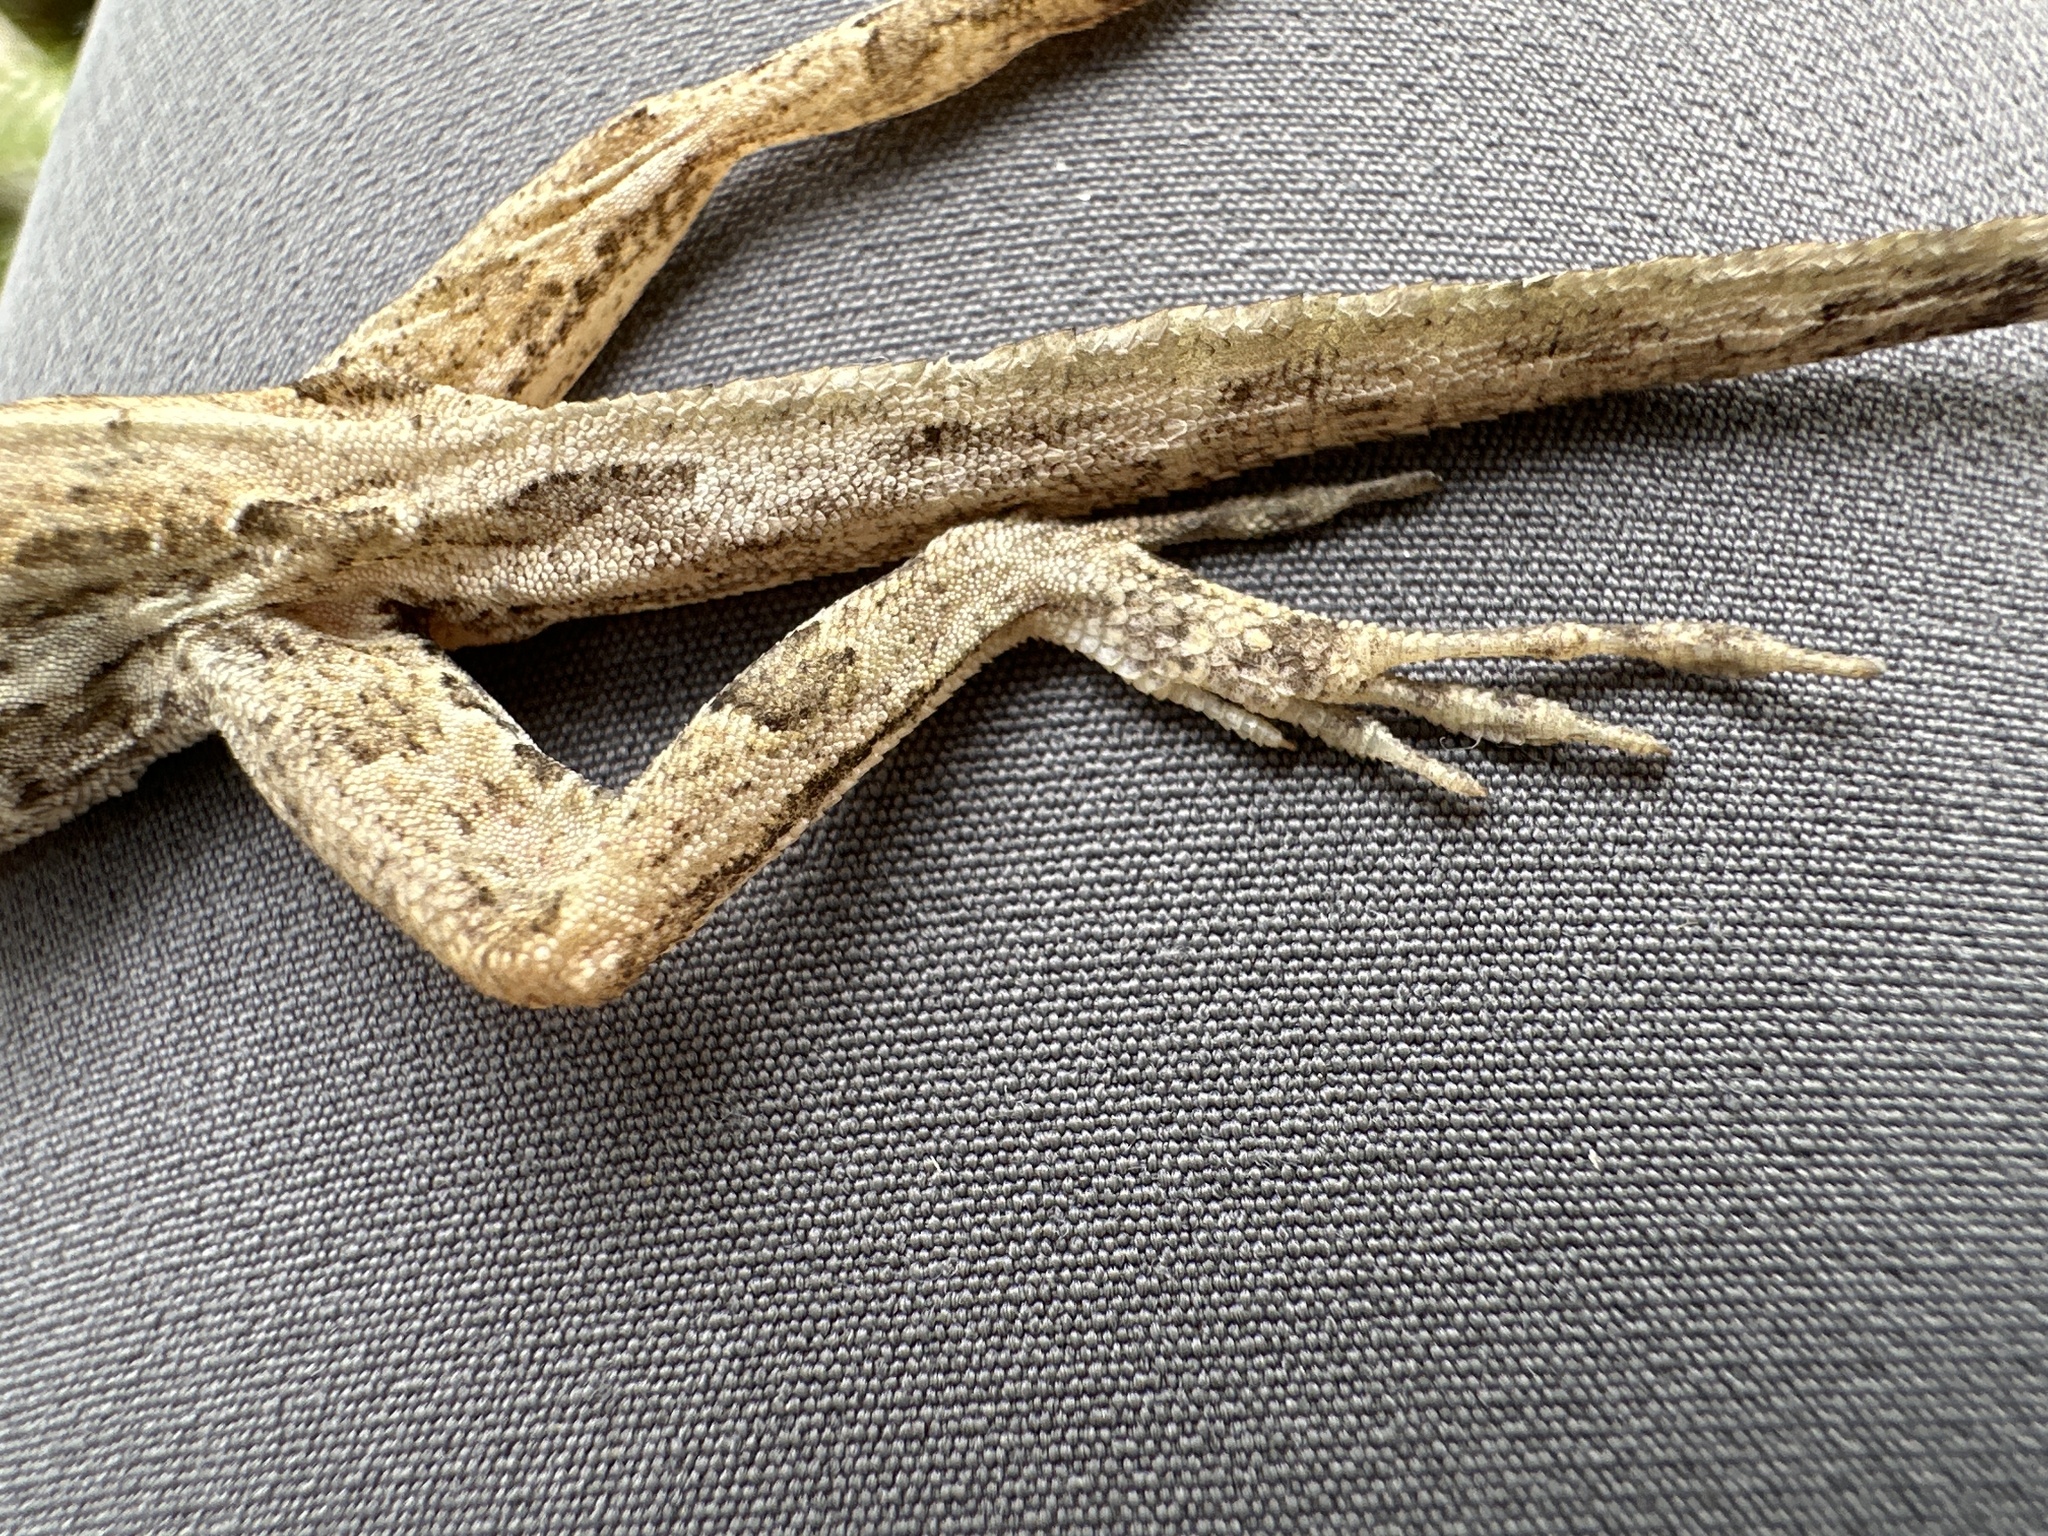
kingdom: Animalia
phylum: Chordata
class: Squamata
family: Dactyloidae
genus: Anolis
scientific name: Anolis sagrei
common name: Brown anole
